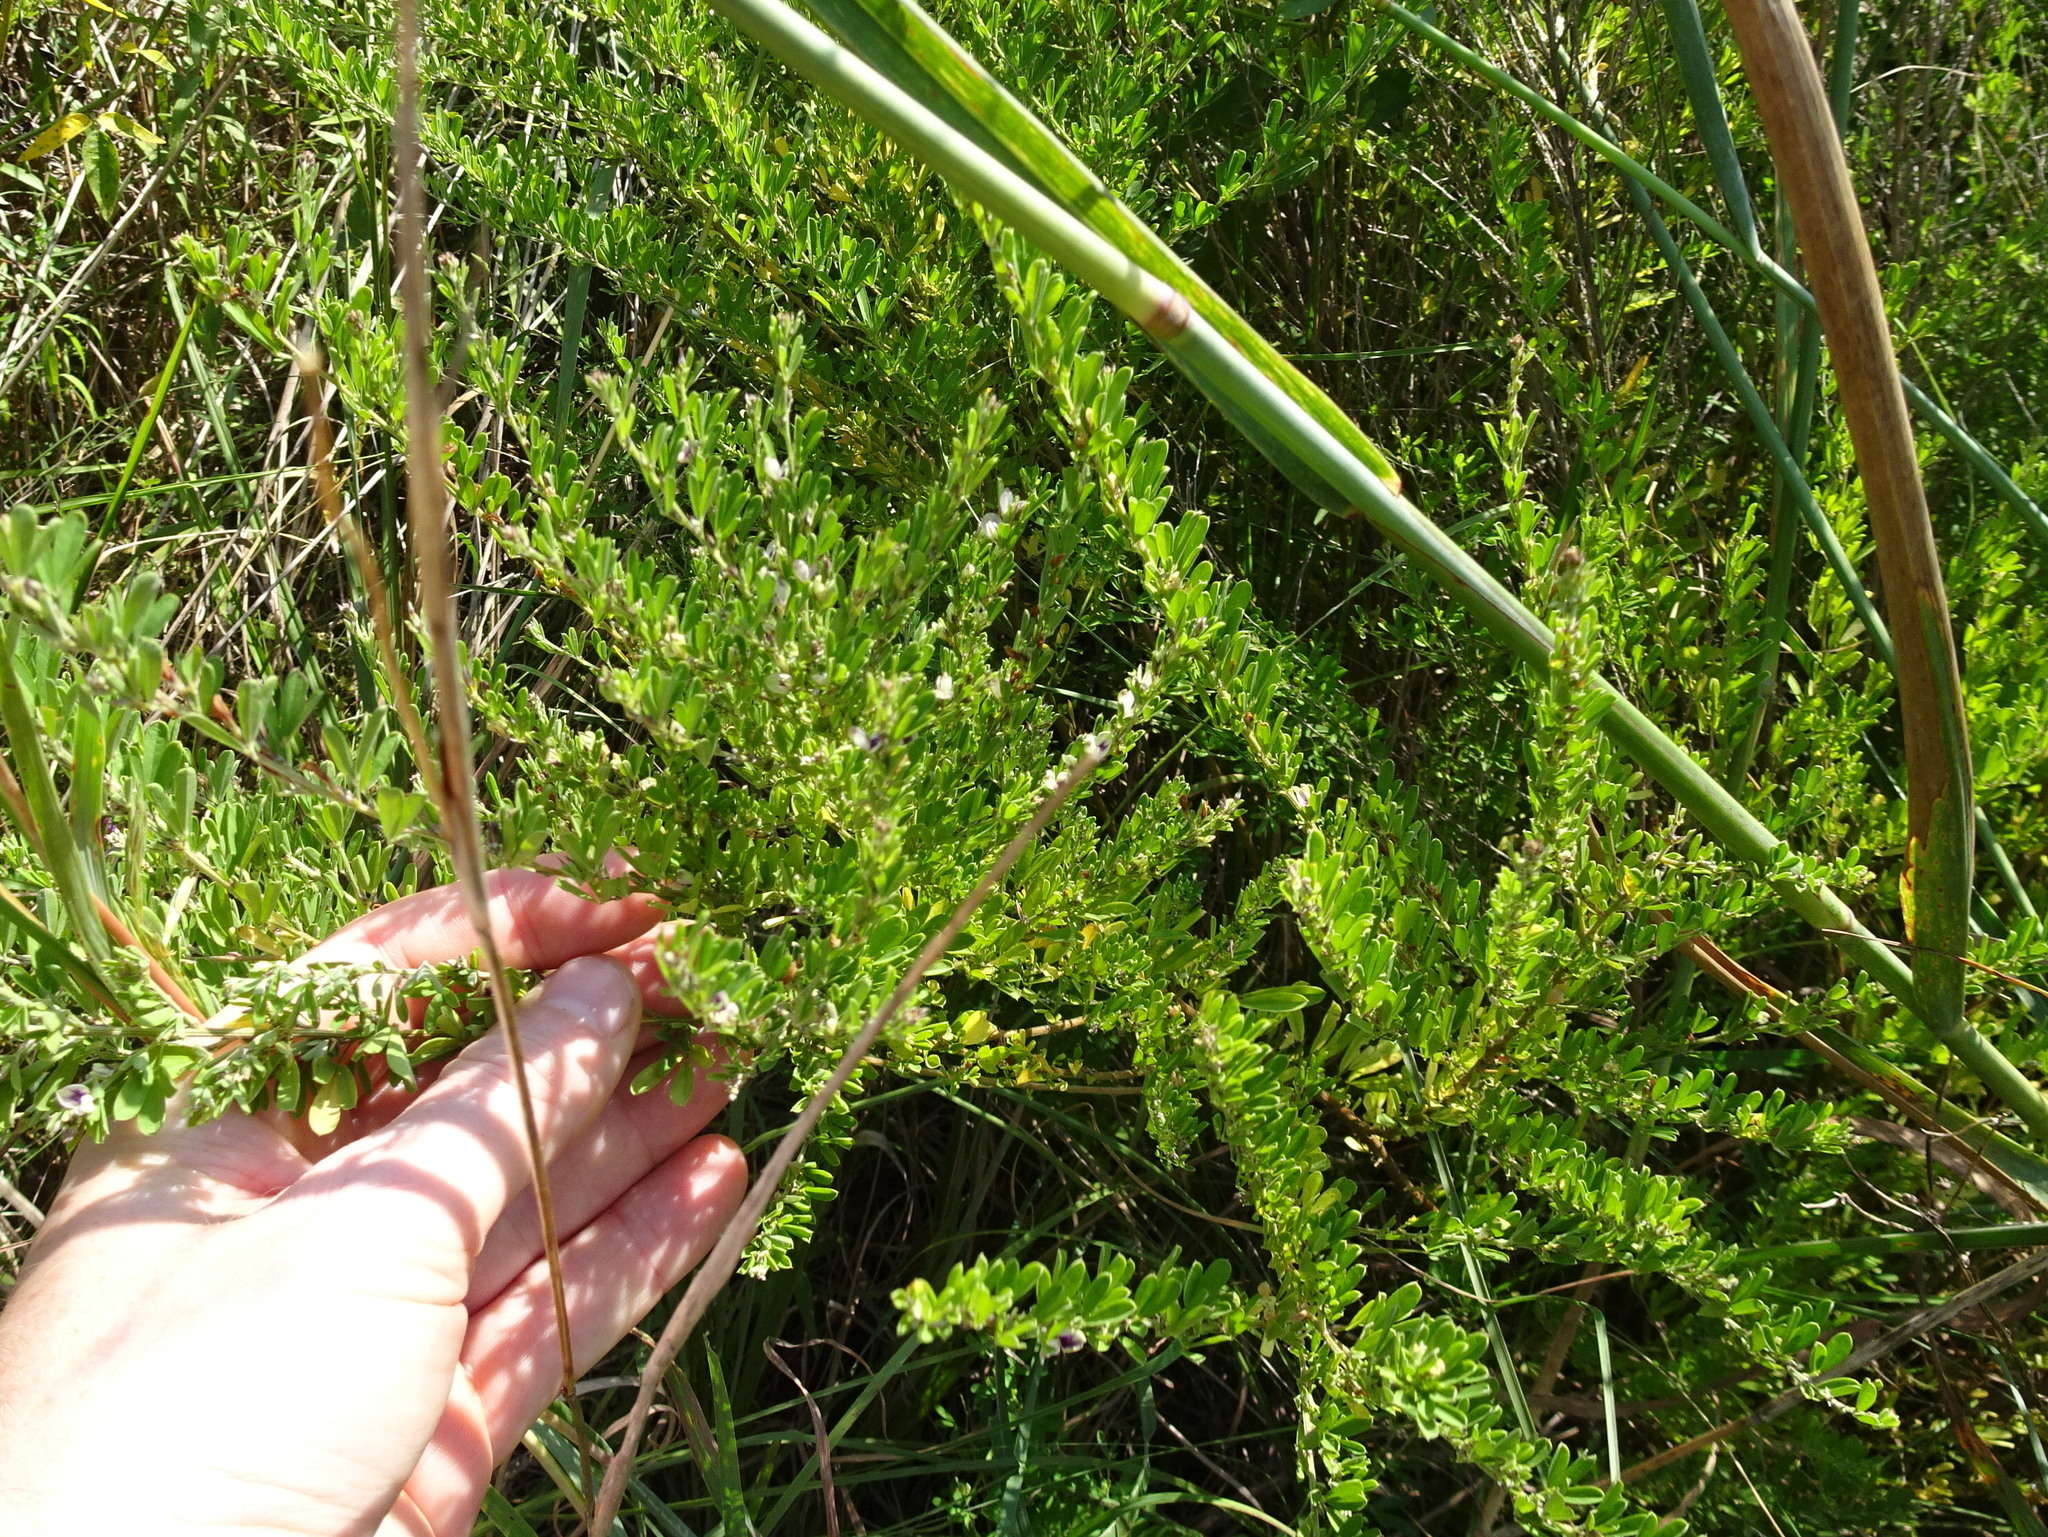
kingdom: Plantae
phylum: Tracheophyta
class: Magnoliopsida
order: Fabales
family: Fabaceae
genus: Lespedeza
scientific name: Lespedeza cuneata
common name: Chinese bush-clover
